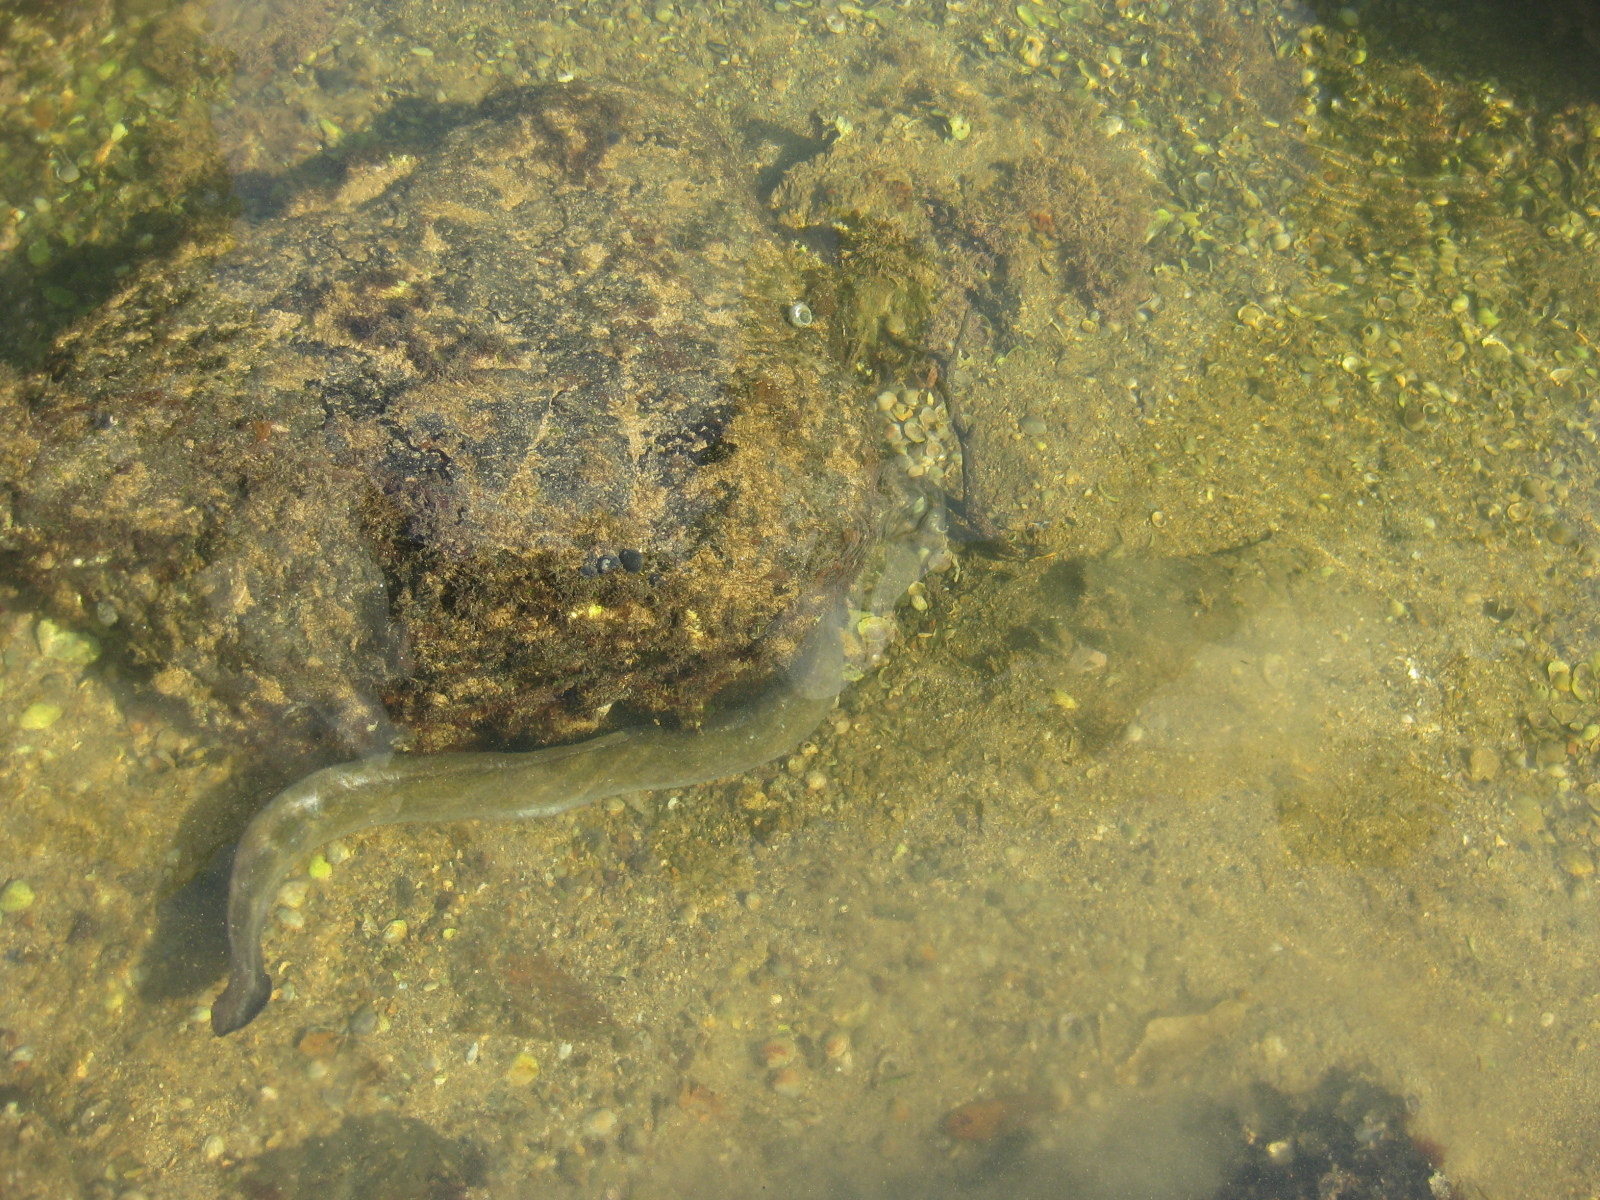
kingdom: Animalia
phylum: Chordata
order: Anguilliformes
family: Anguillidae
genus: Anguilla
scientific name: Anguilla australis
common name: Shortfin eel
